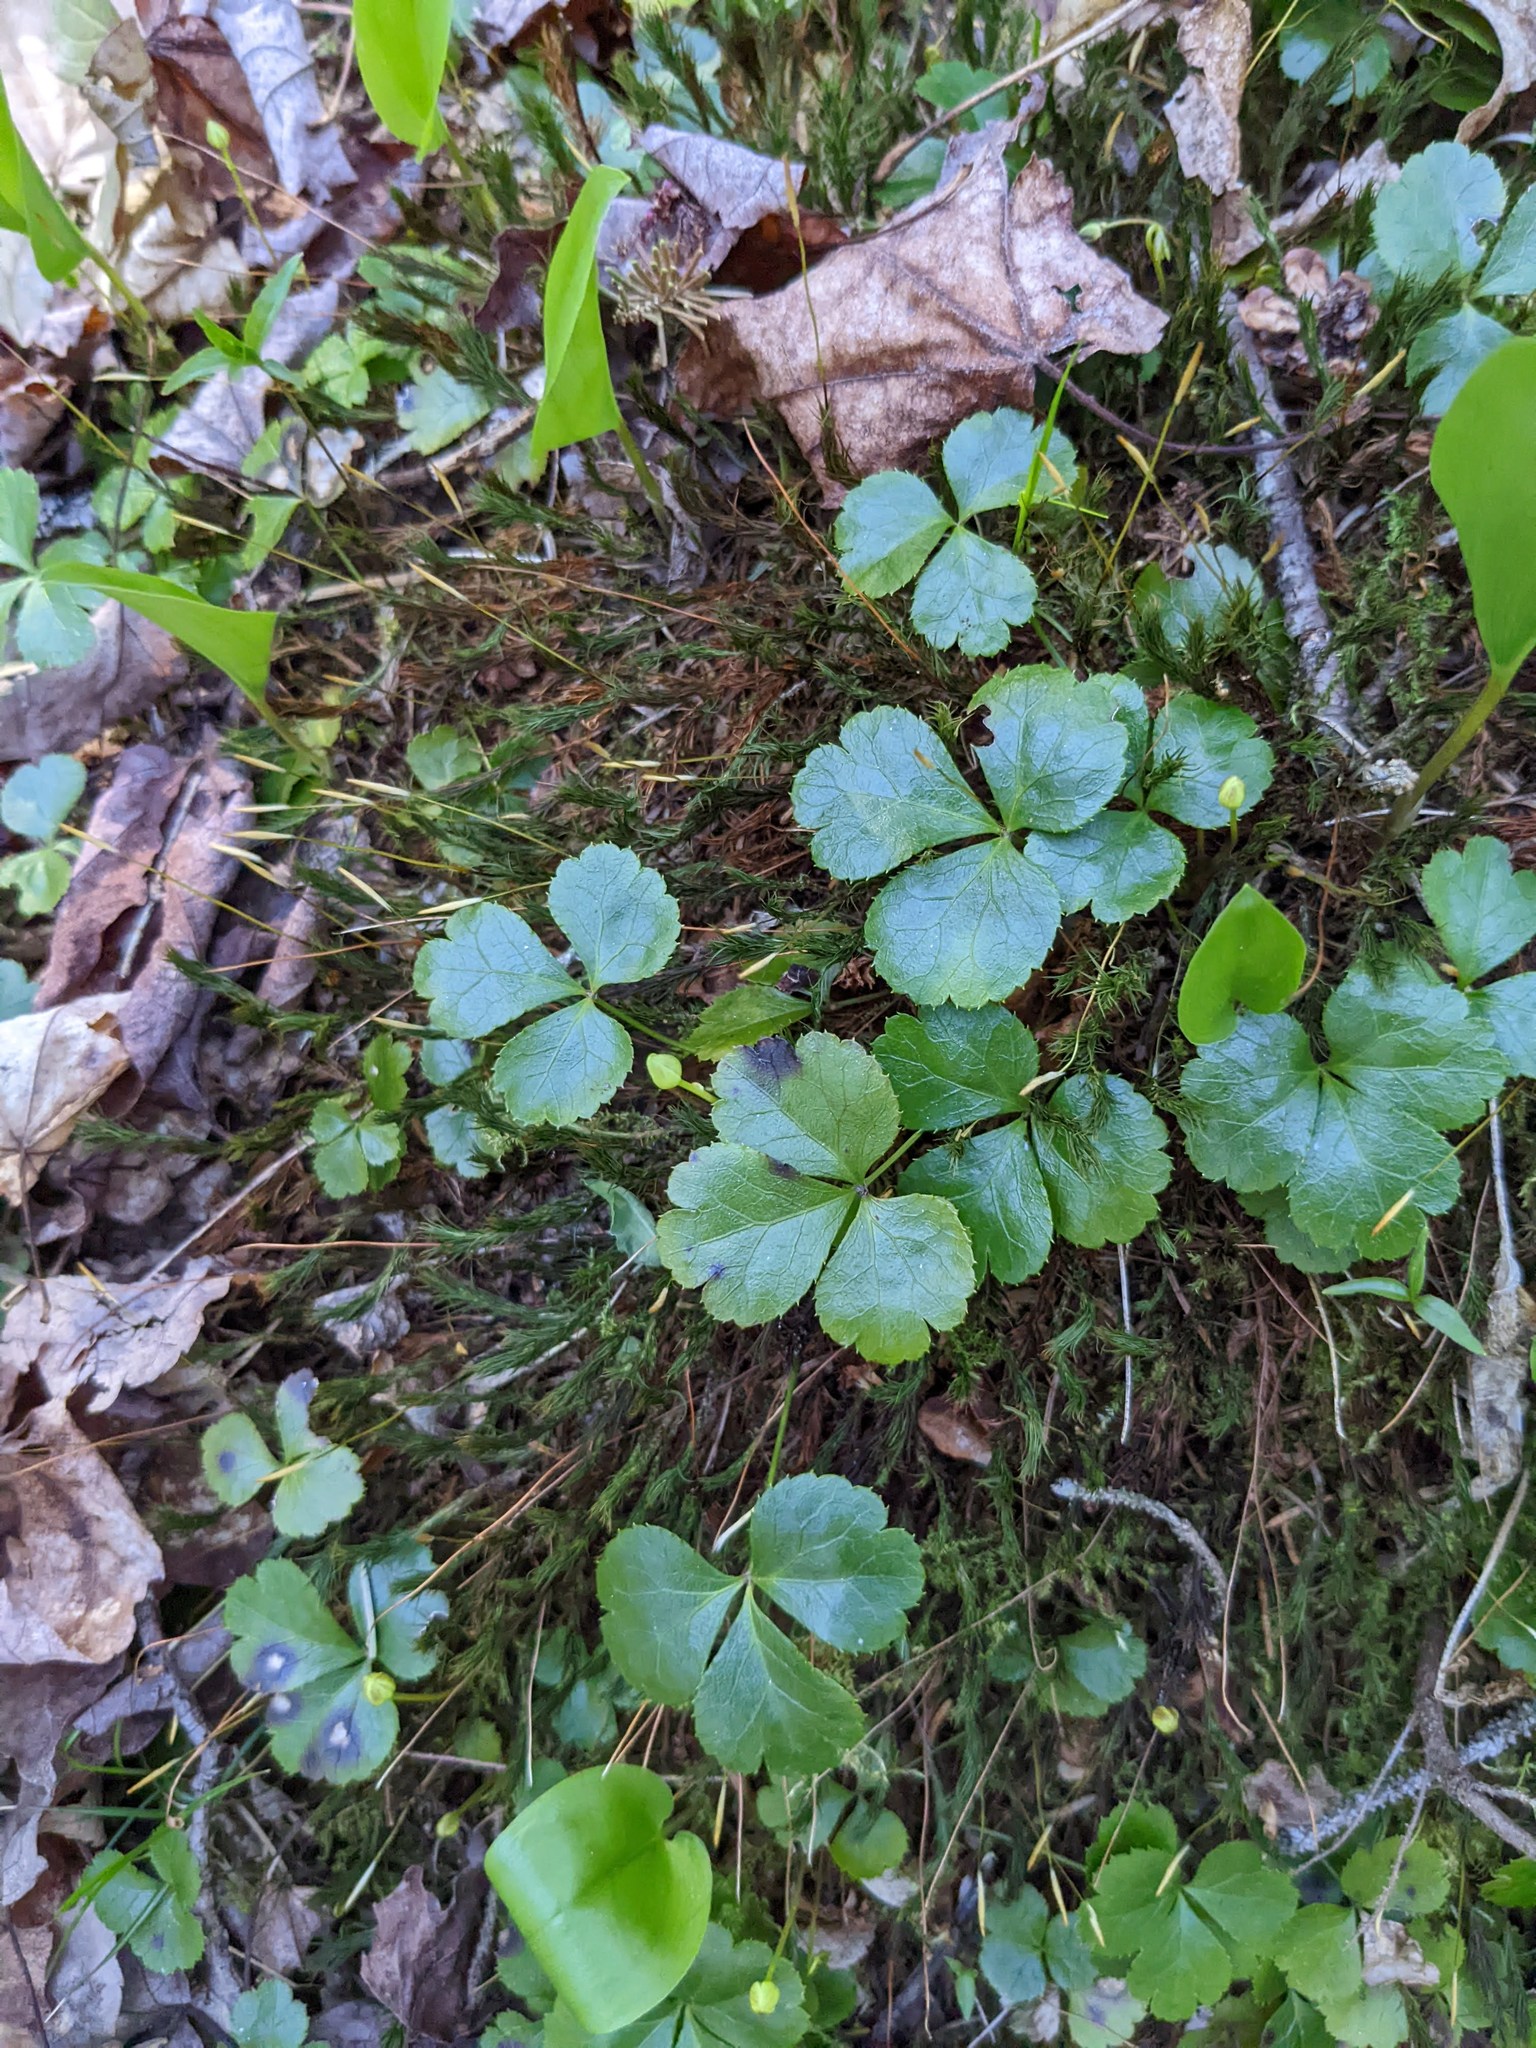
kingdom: Plantae
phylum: Tracheophyta
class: Magnoliopsida
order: Ranunculales
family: Ranunculaceae
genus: Coptis
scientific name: Coptis trifolia
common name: Canker-root
